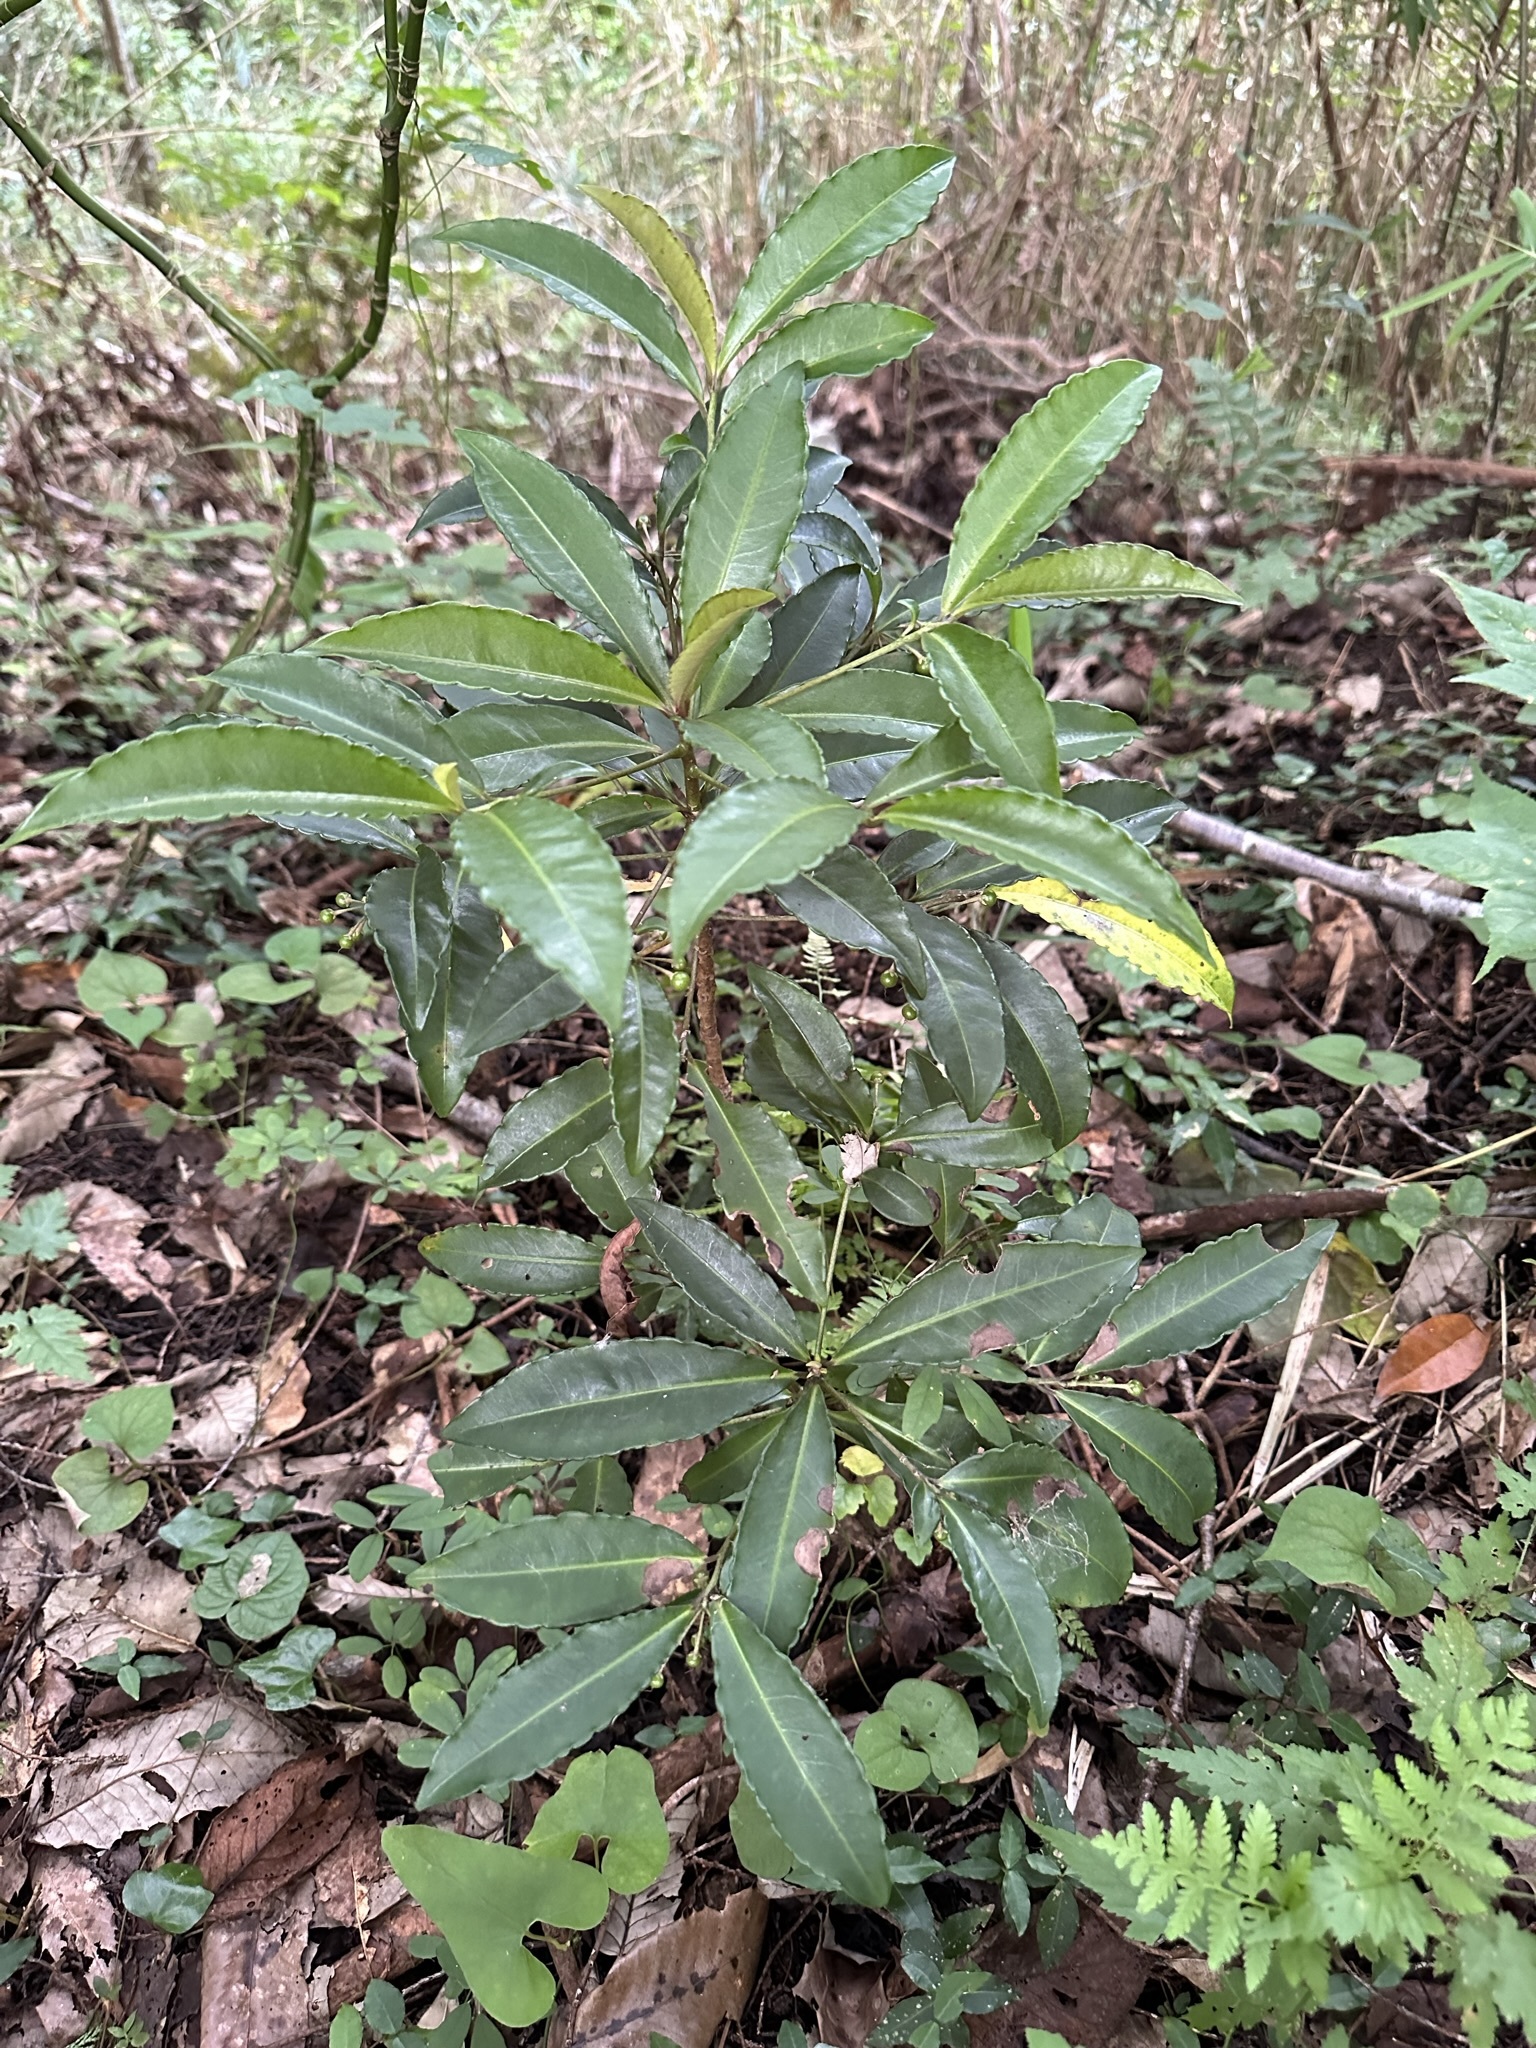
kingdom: Plantae
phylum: Tracheophyta
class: Magnoliopsida
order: Ericales
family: Primulaceae
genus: Ardisia
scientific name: Ardisia crenata
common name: Hen's eyes
